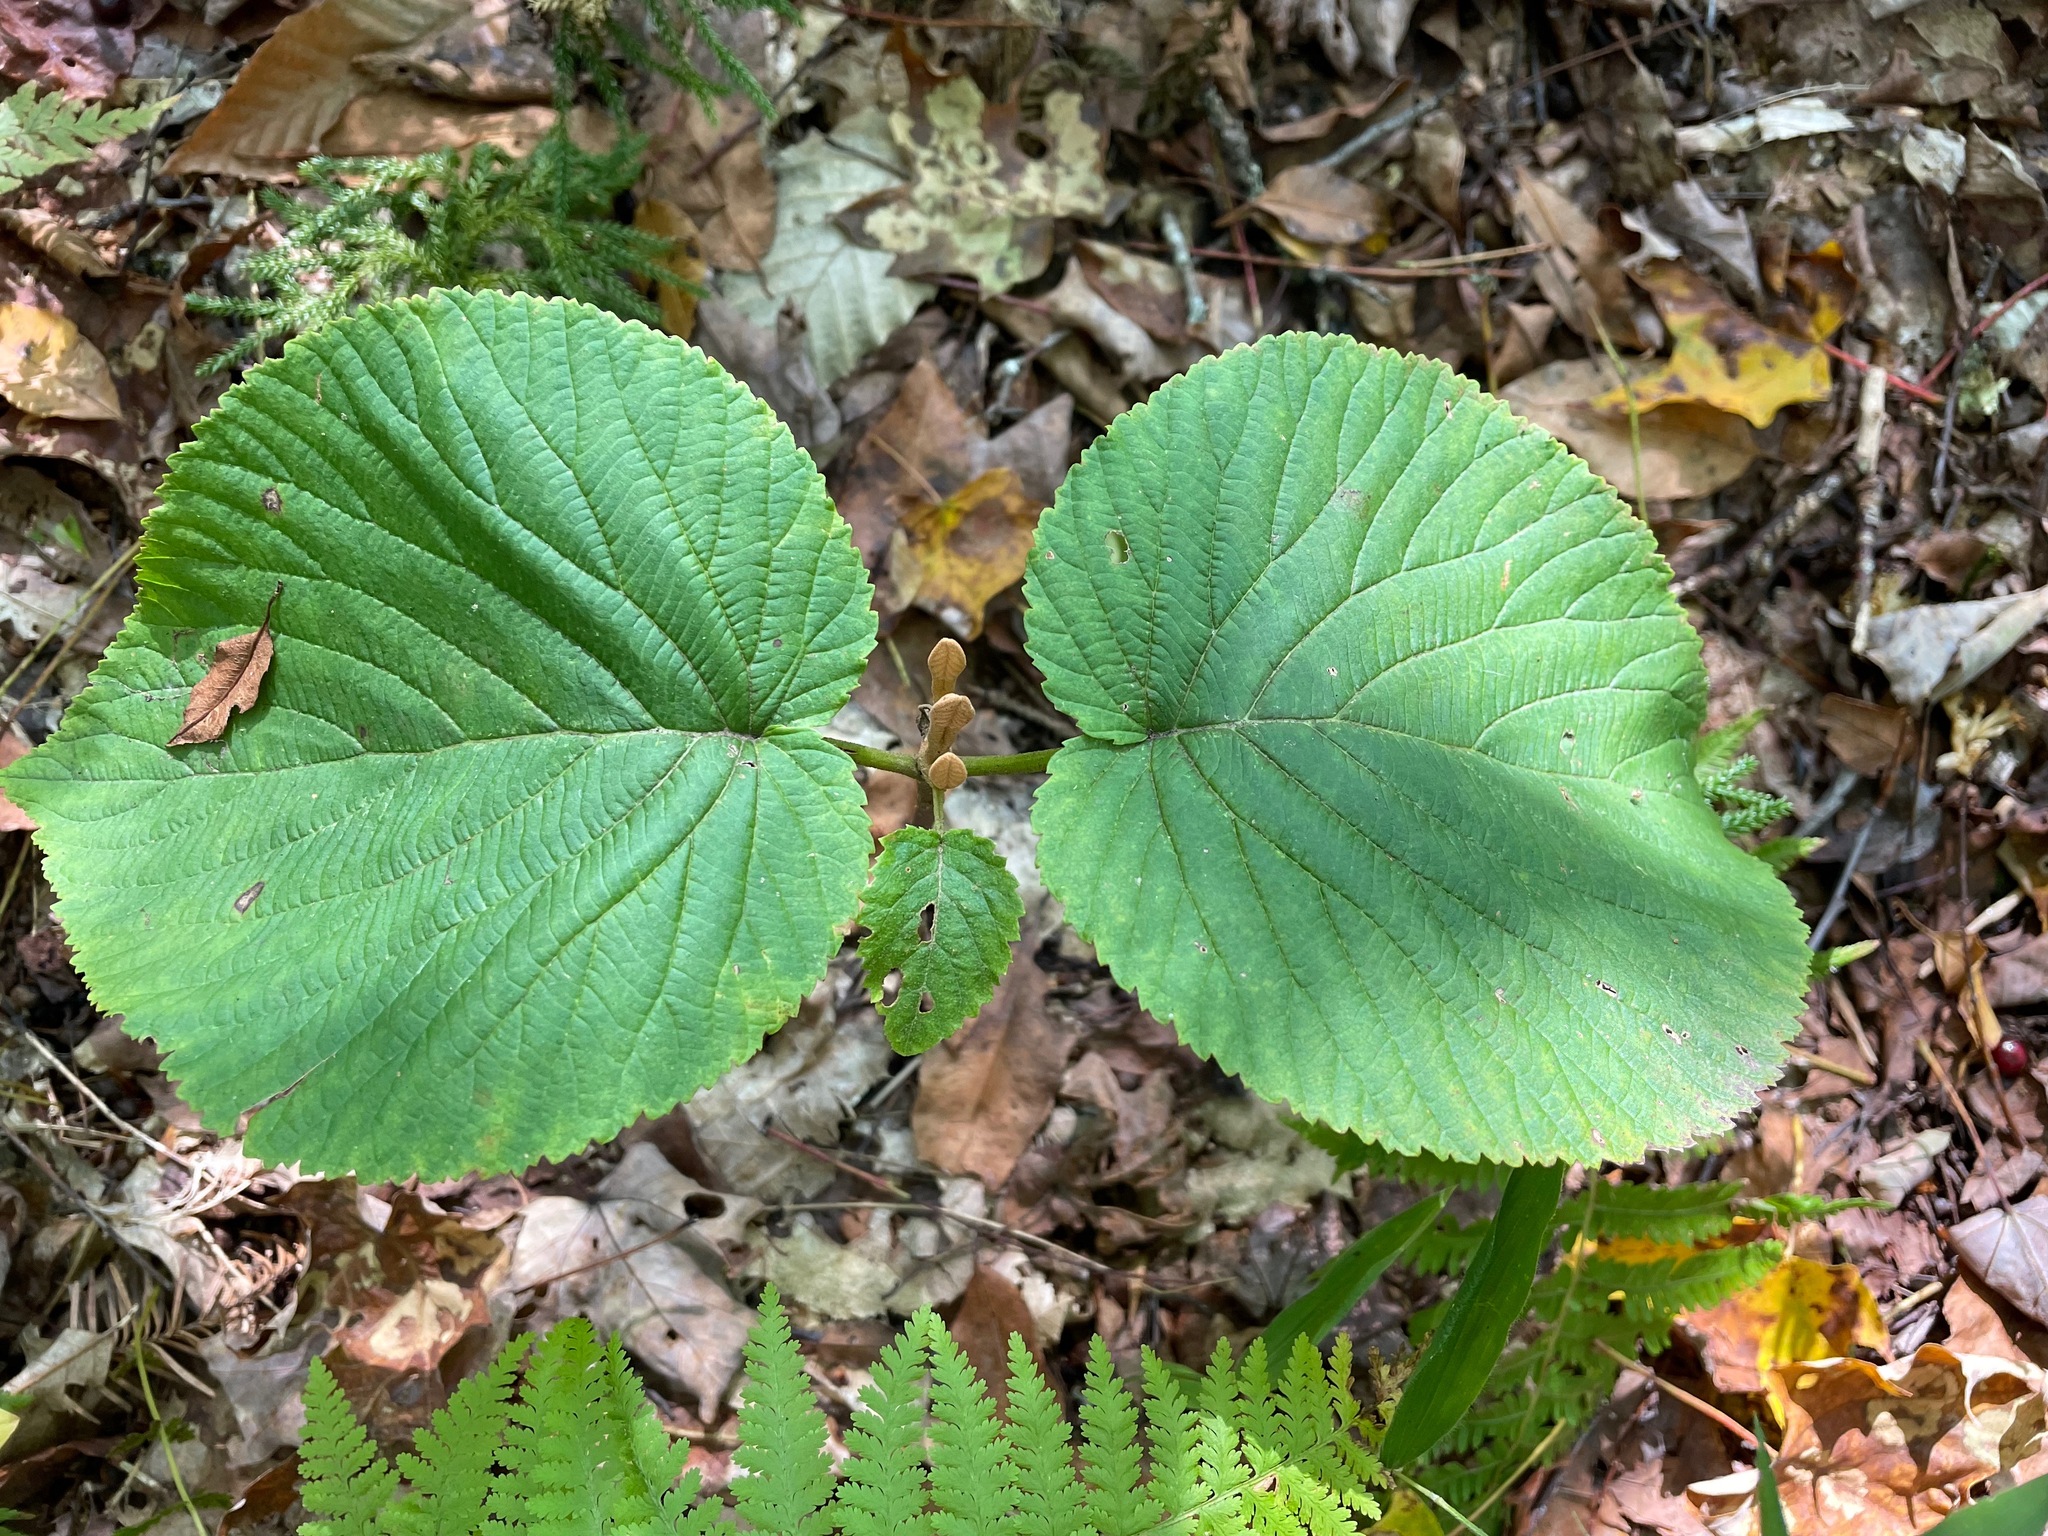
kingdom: Plantae
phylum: Tracheophyta
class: Magnoliopsida
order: Dipsacales
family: Viburnaceae
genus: Viburnum
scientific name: Viburnum lantanoides
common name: Hobblebush
